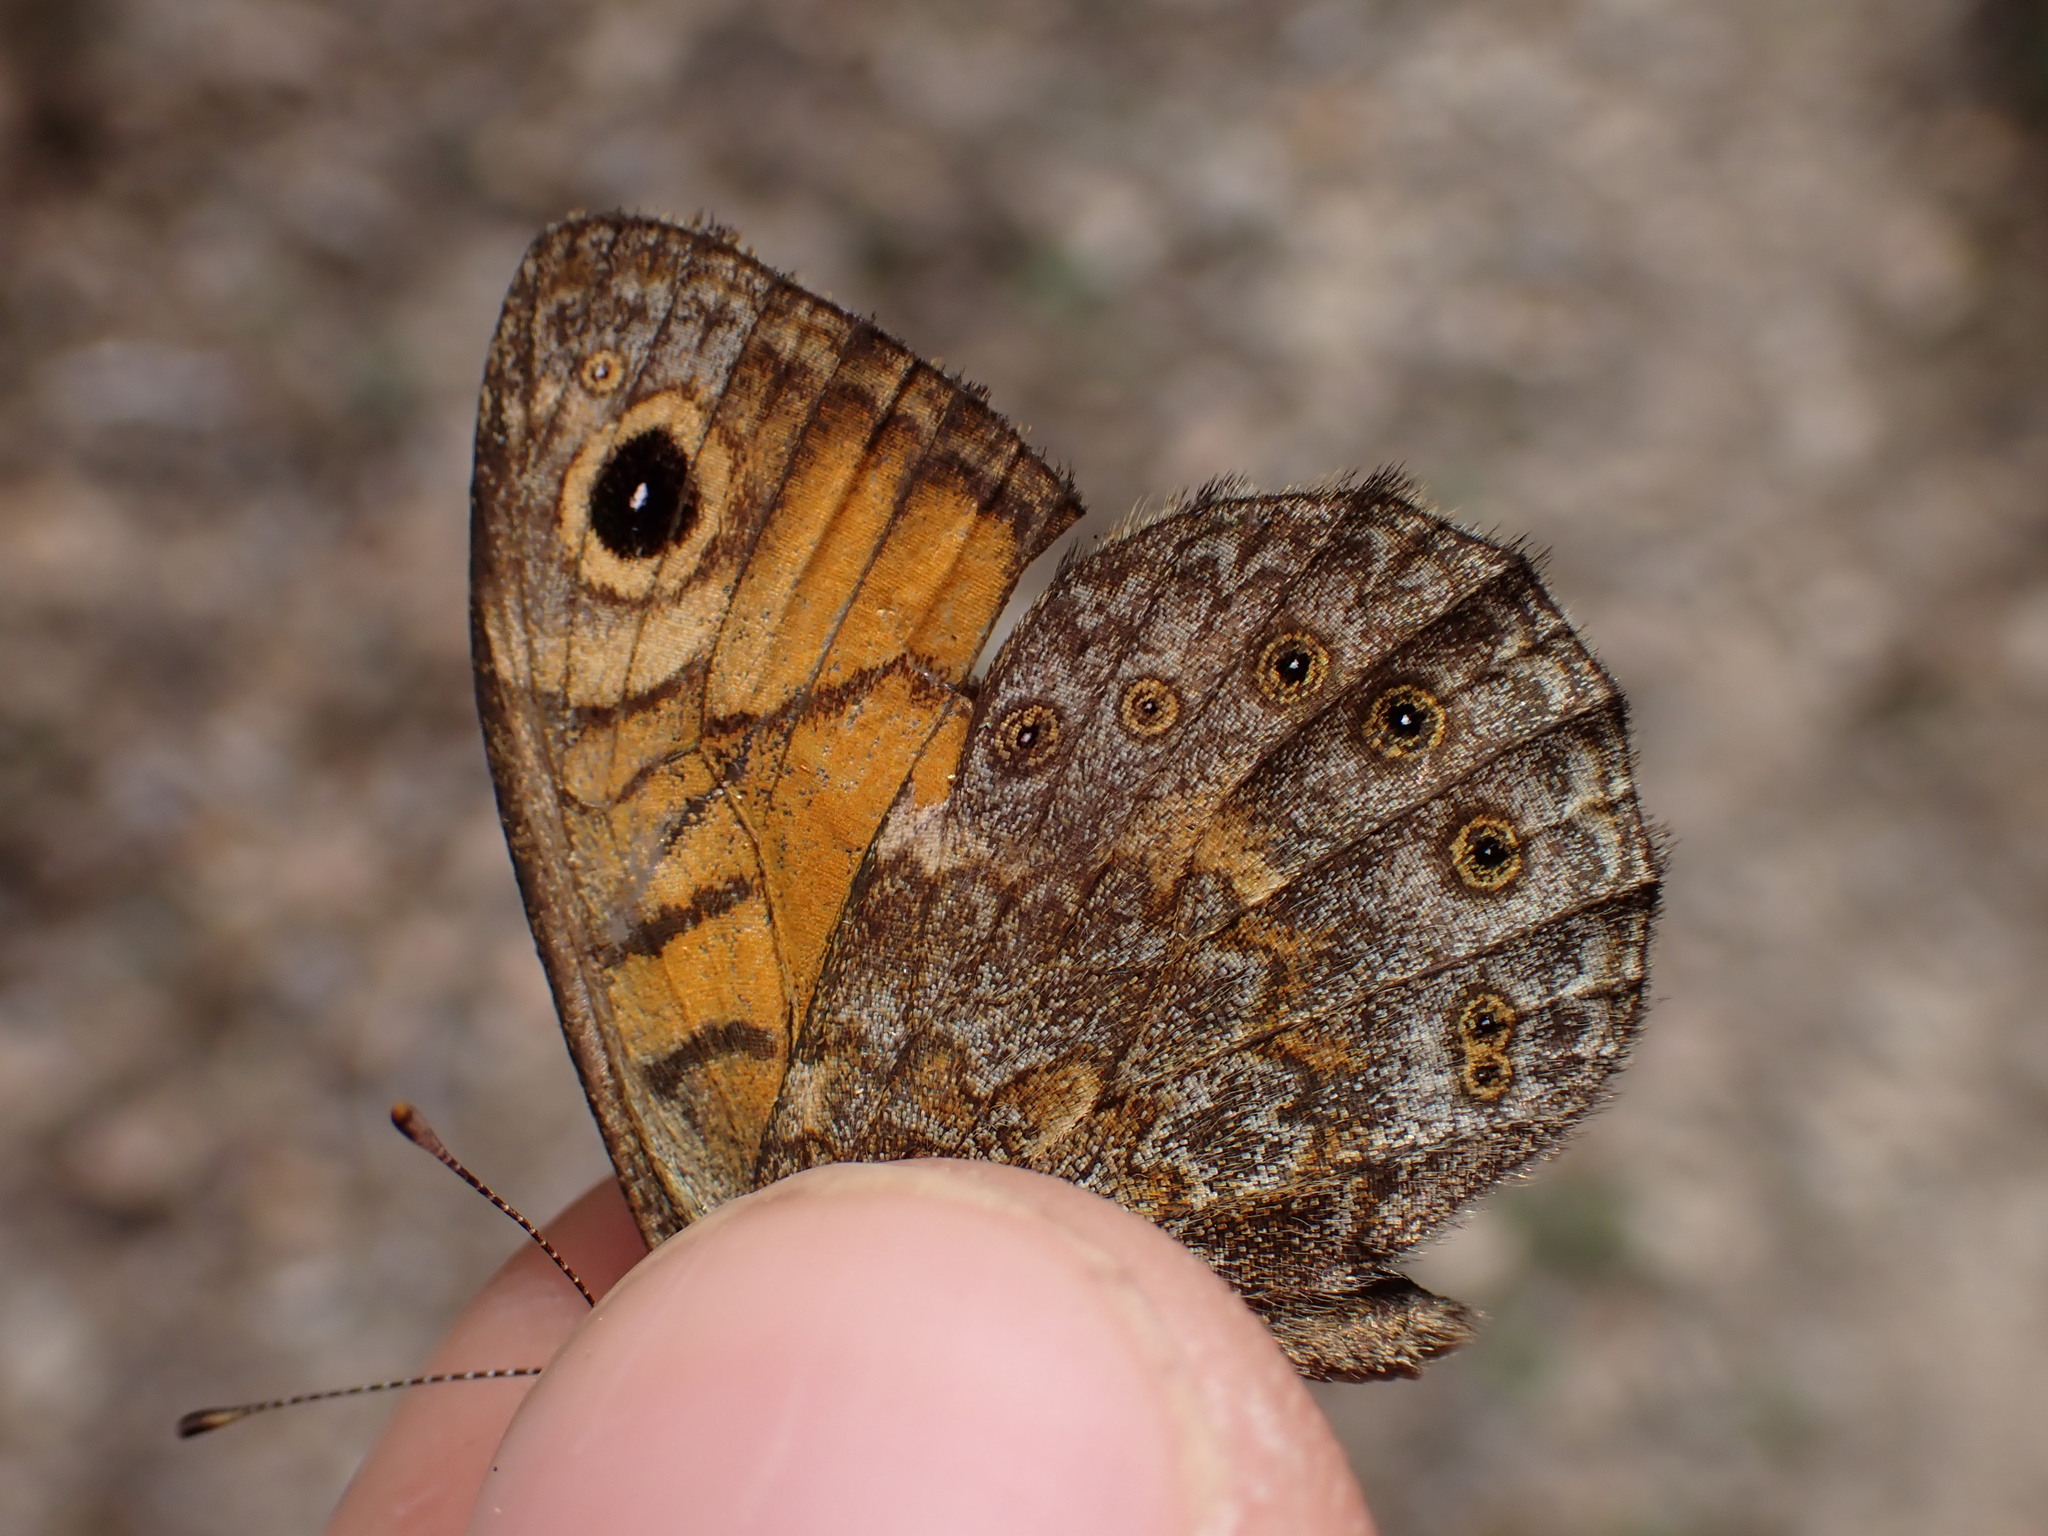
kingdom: Animalia
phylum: Arthropoda
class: Insecta
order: Lepidoptera
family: Nymphalidae
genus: Pararge
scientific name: Pararge Lasiommata megera
